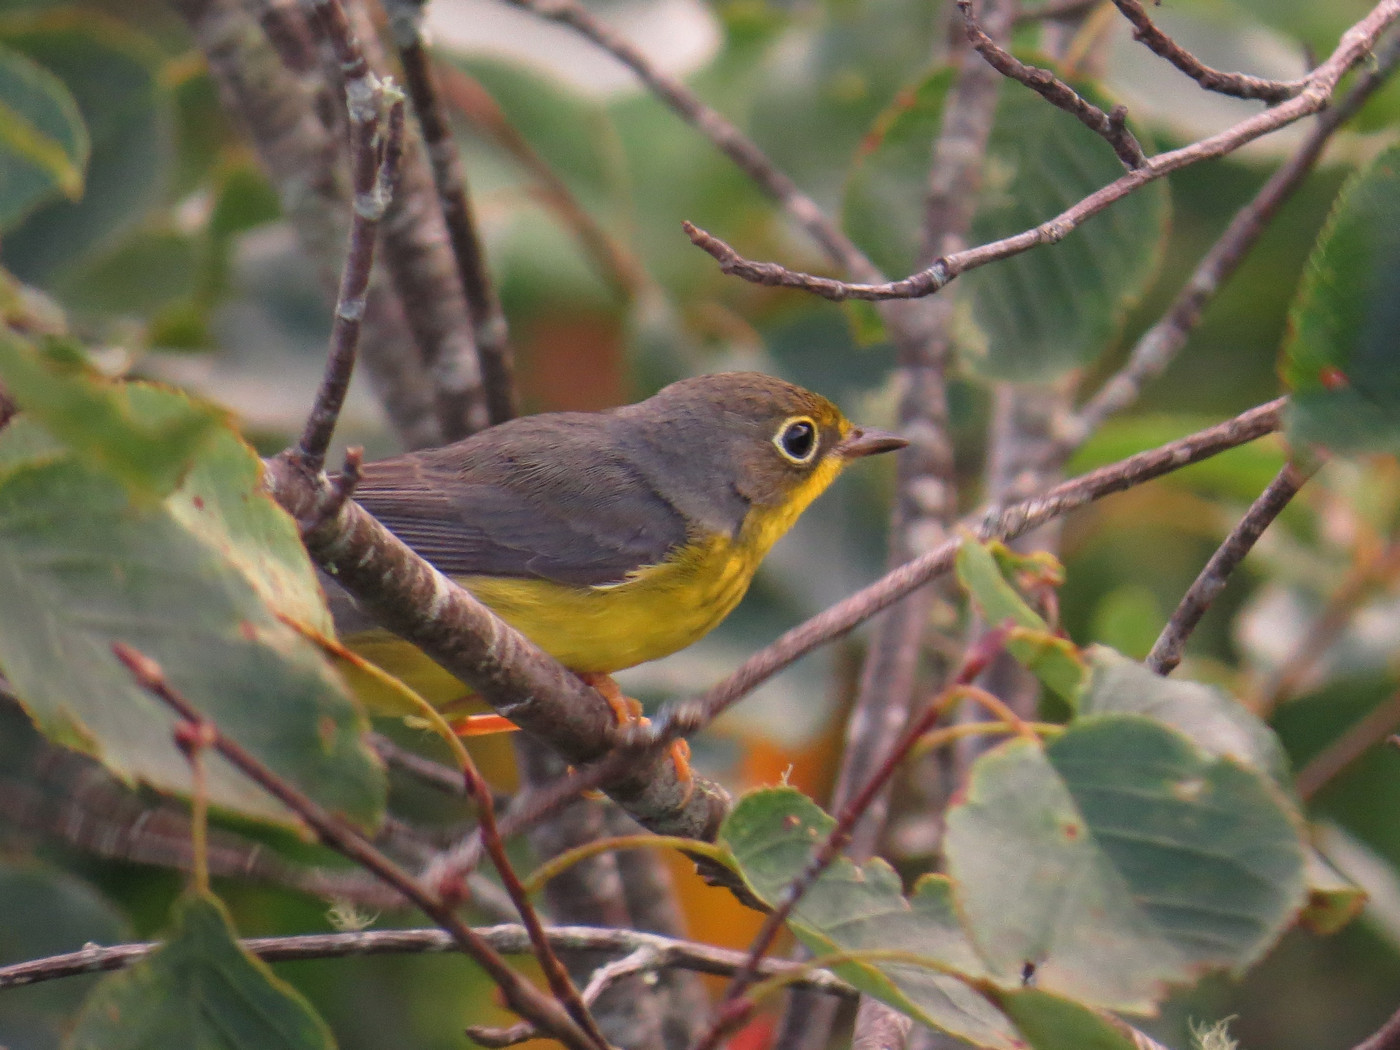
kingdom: Animalia
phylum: Chordata
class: Aves
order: Passeriformes
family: Parulidae
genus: Cardellina
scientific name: Cardellina canadensis
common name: Canada warbler
